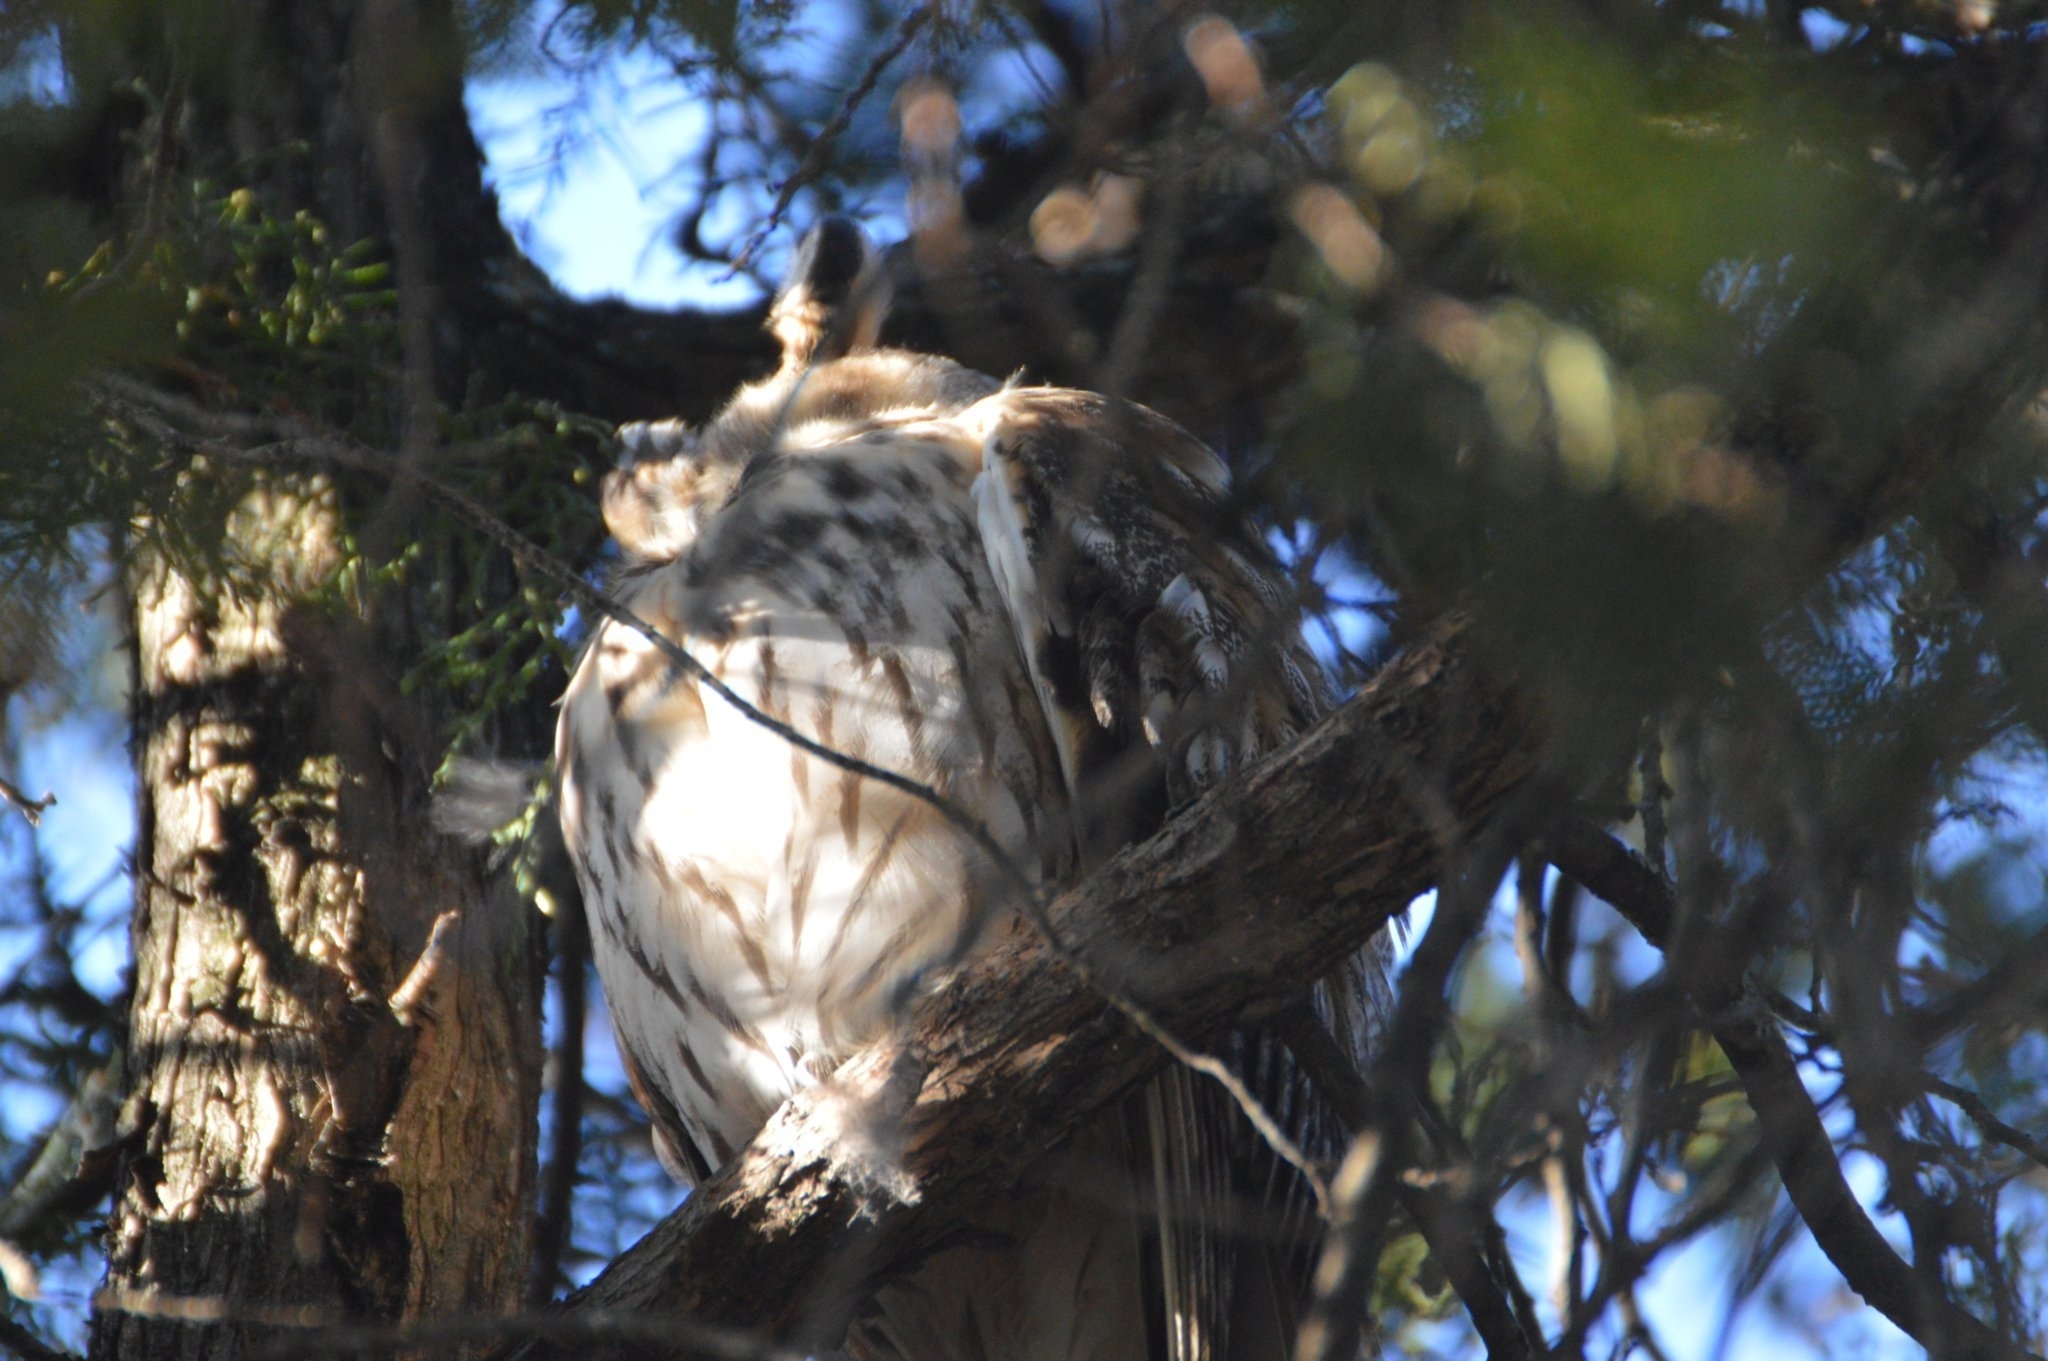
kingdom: Animalia
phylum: Chordata
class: Aves
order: Strigiformes
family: Strigidae
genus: Asio
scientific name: Asio otus
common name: Long-eared owl
